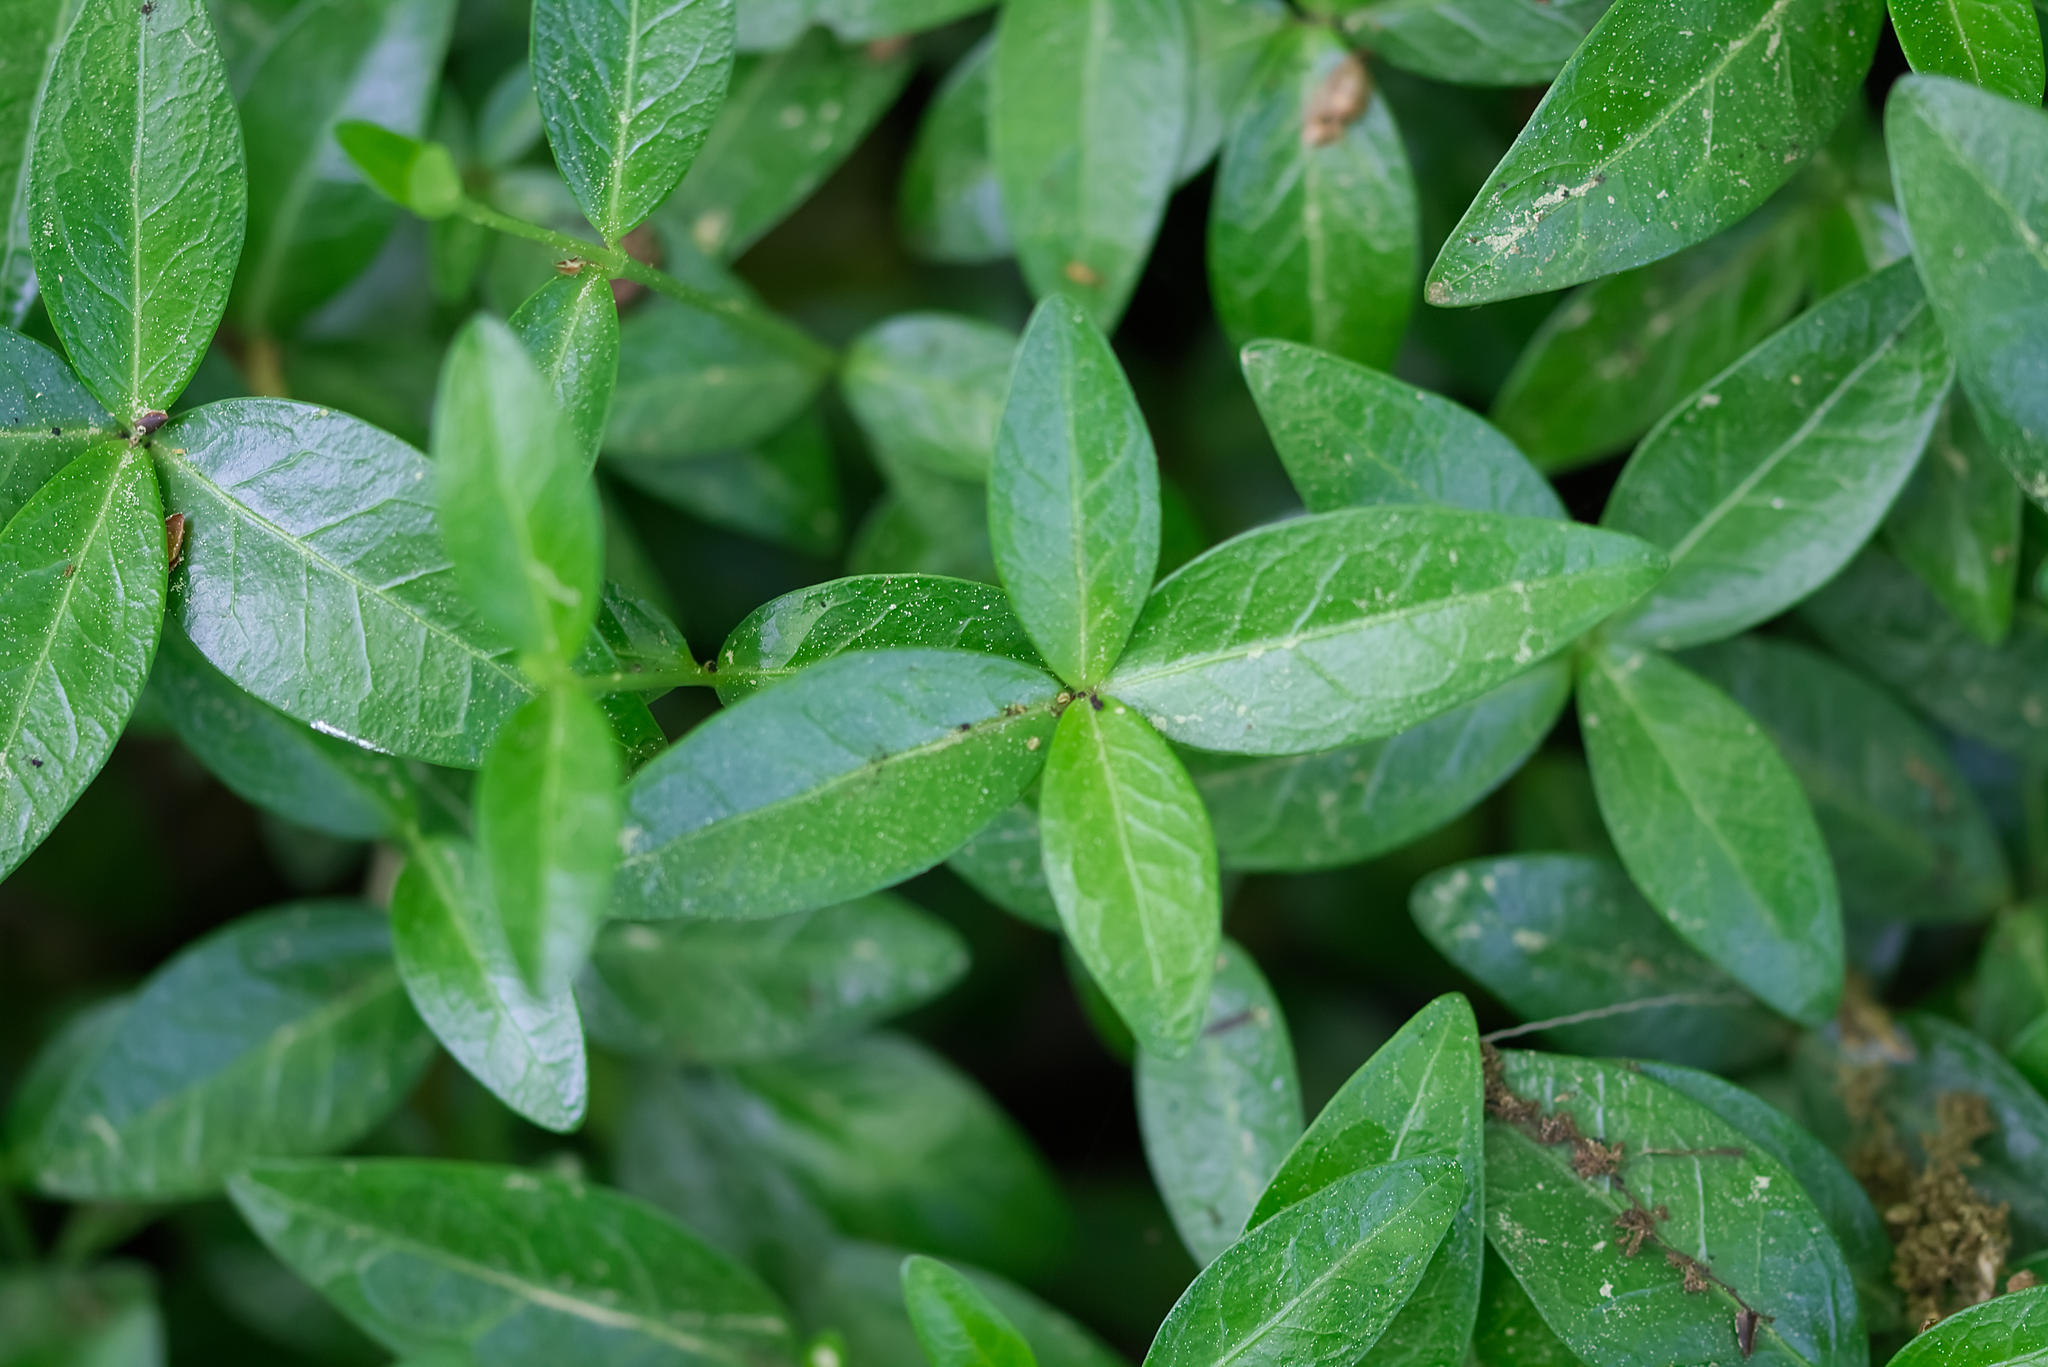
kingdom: Plantae
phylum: Tracheophyta
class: Magnoliopsida
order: Gentianales
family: Apocynaceae
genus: Vinca
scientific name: Vinca minor
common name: Lesser periwinkle
